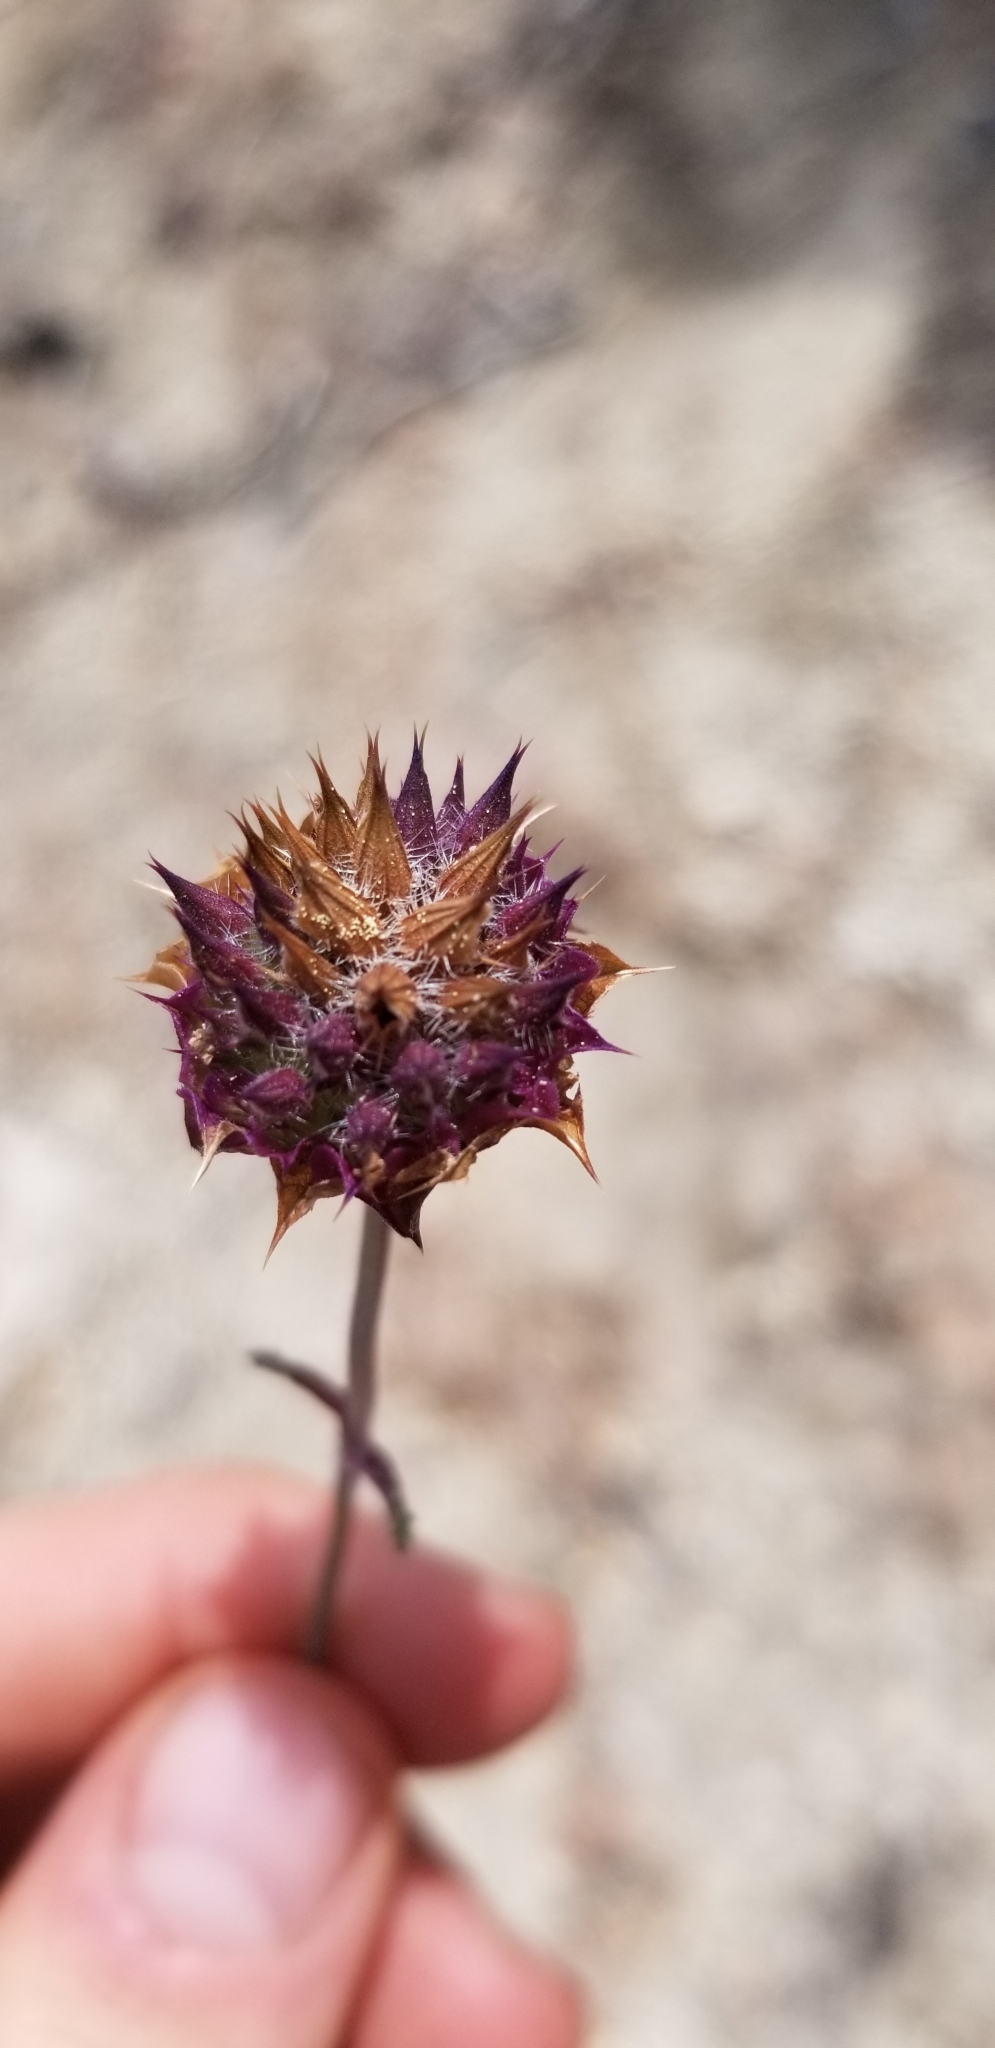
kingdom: Plantae
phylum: Tracheophyta
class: Magnoliopsida
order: Lamiales
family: Lamiaceae
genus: Salvia
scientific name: Salvia columbariae
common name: Chia
